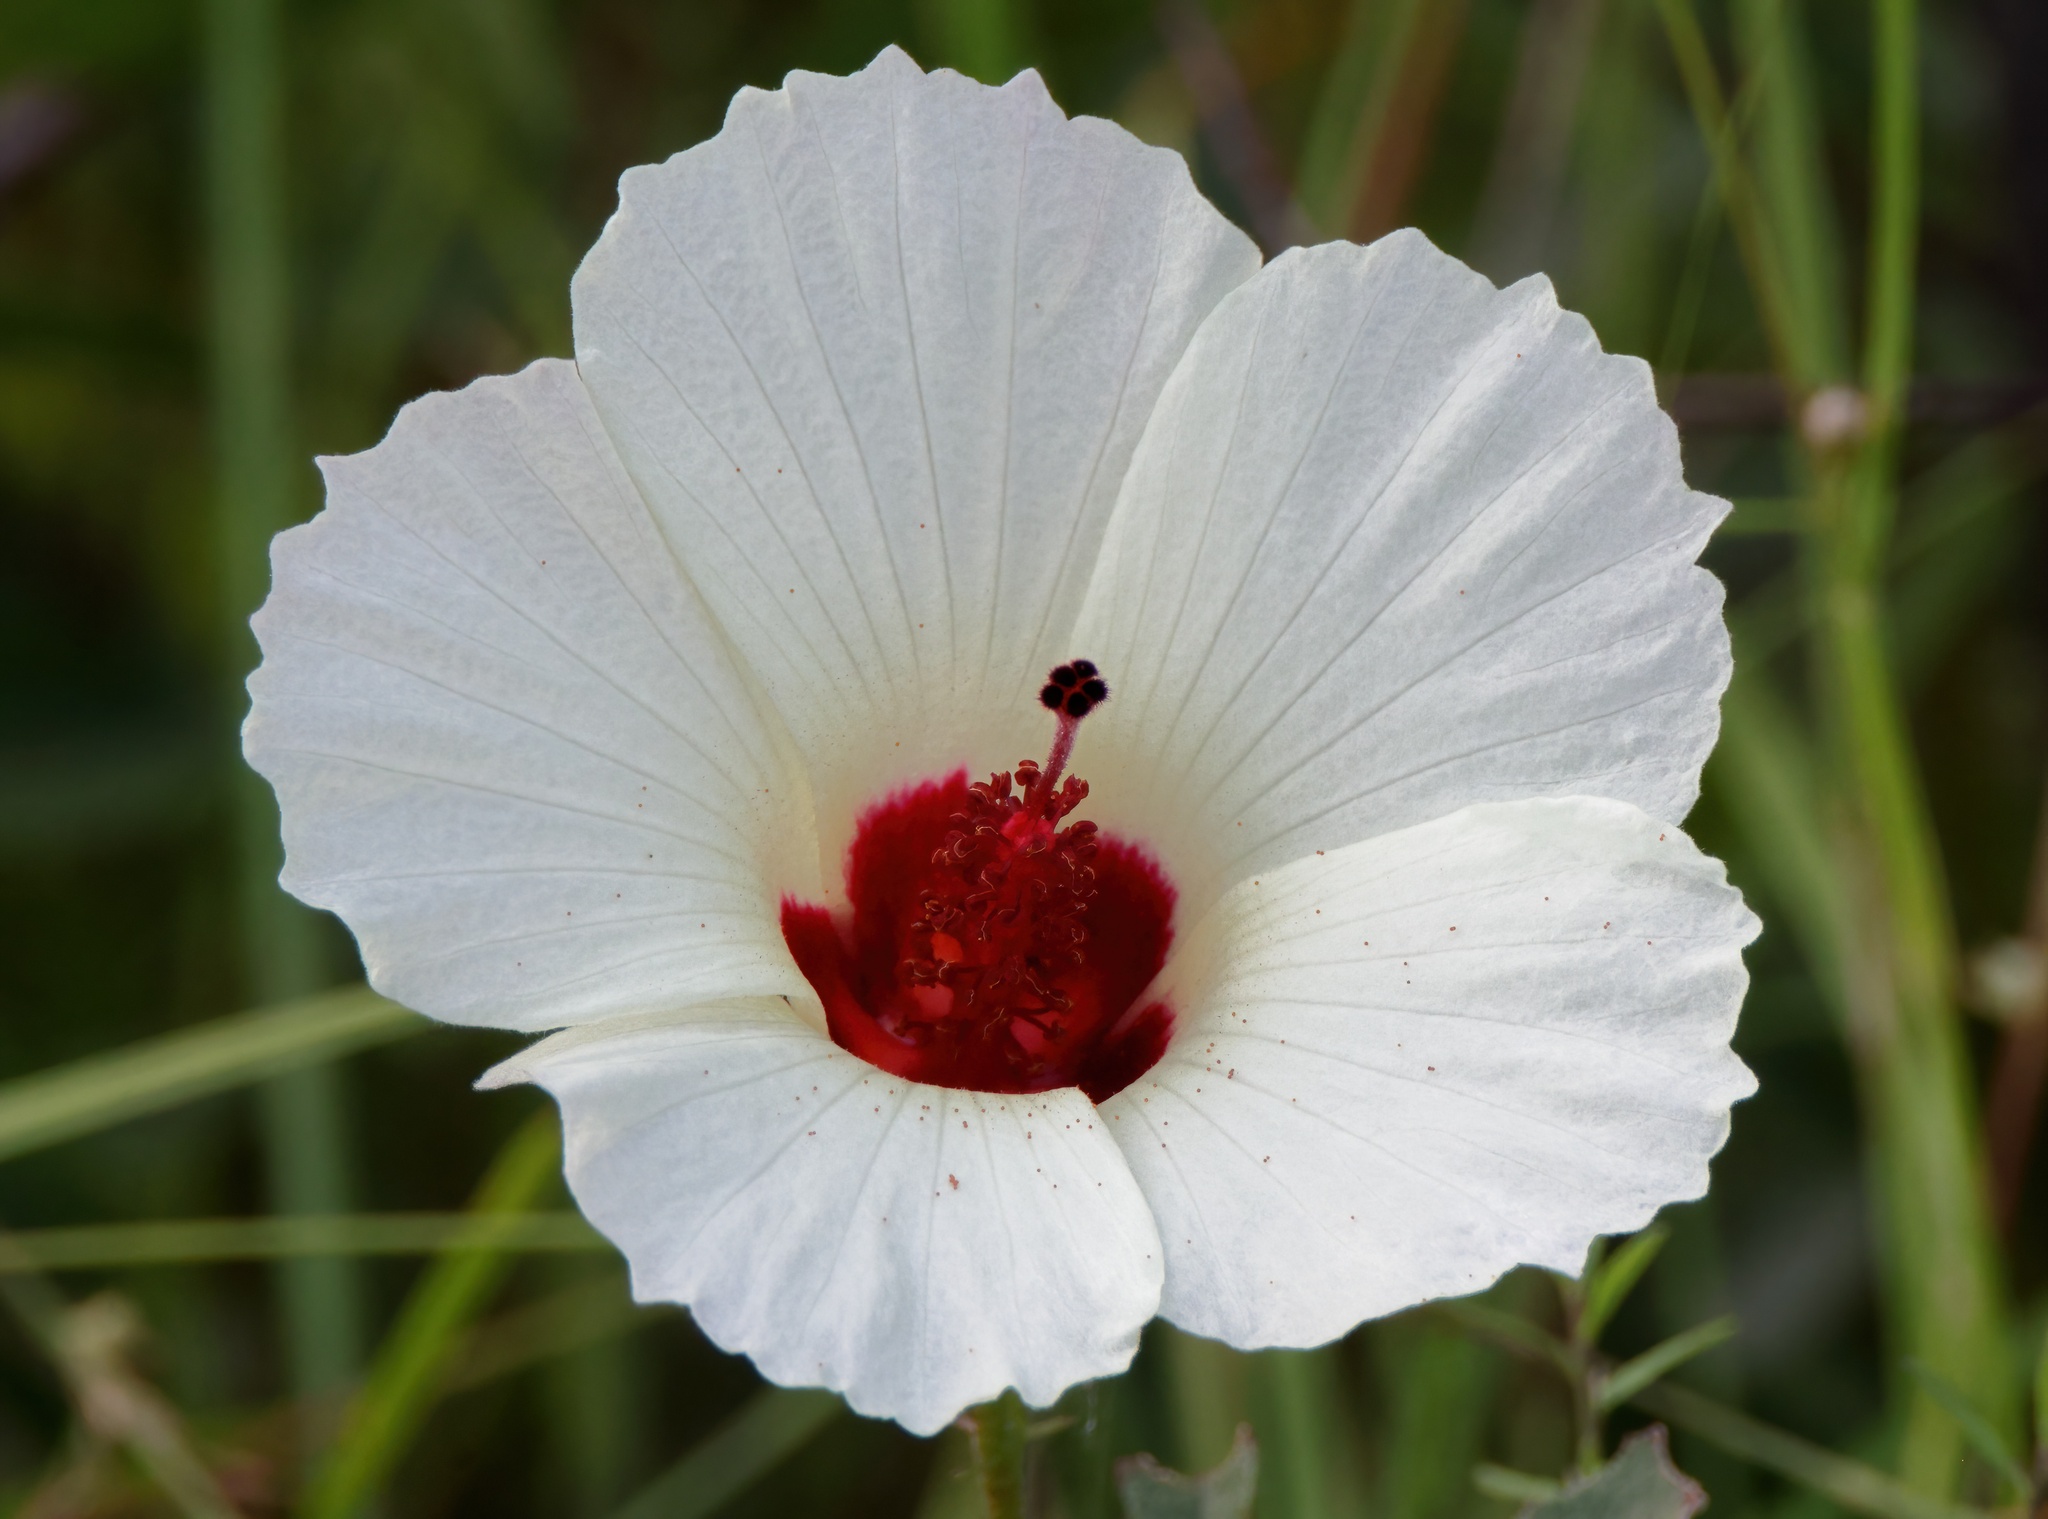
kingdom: Plantae
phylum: Tracheophyta
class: Magnoliopsida
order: Malvales
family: Malvaceae
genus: Hibiscus
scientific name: Hibiscus aculeatus
